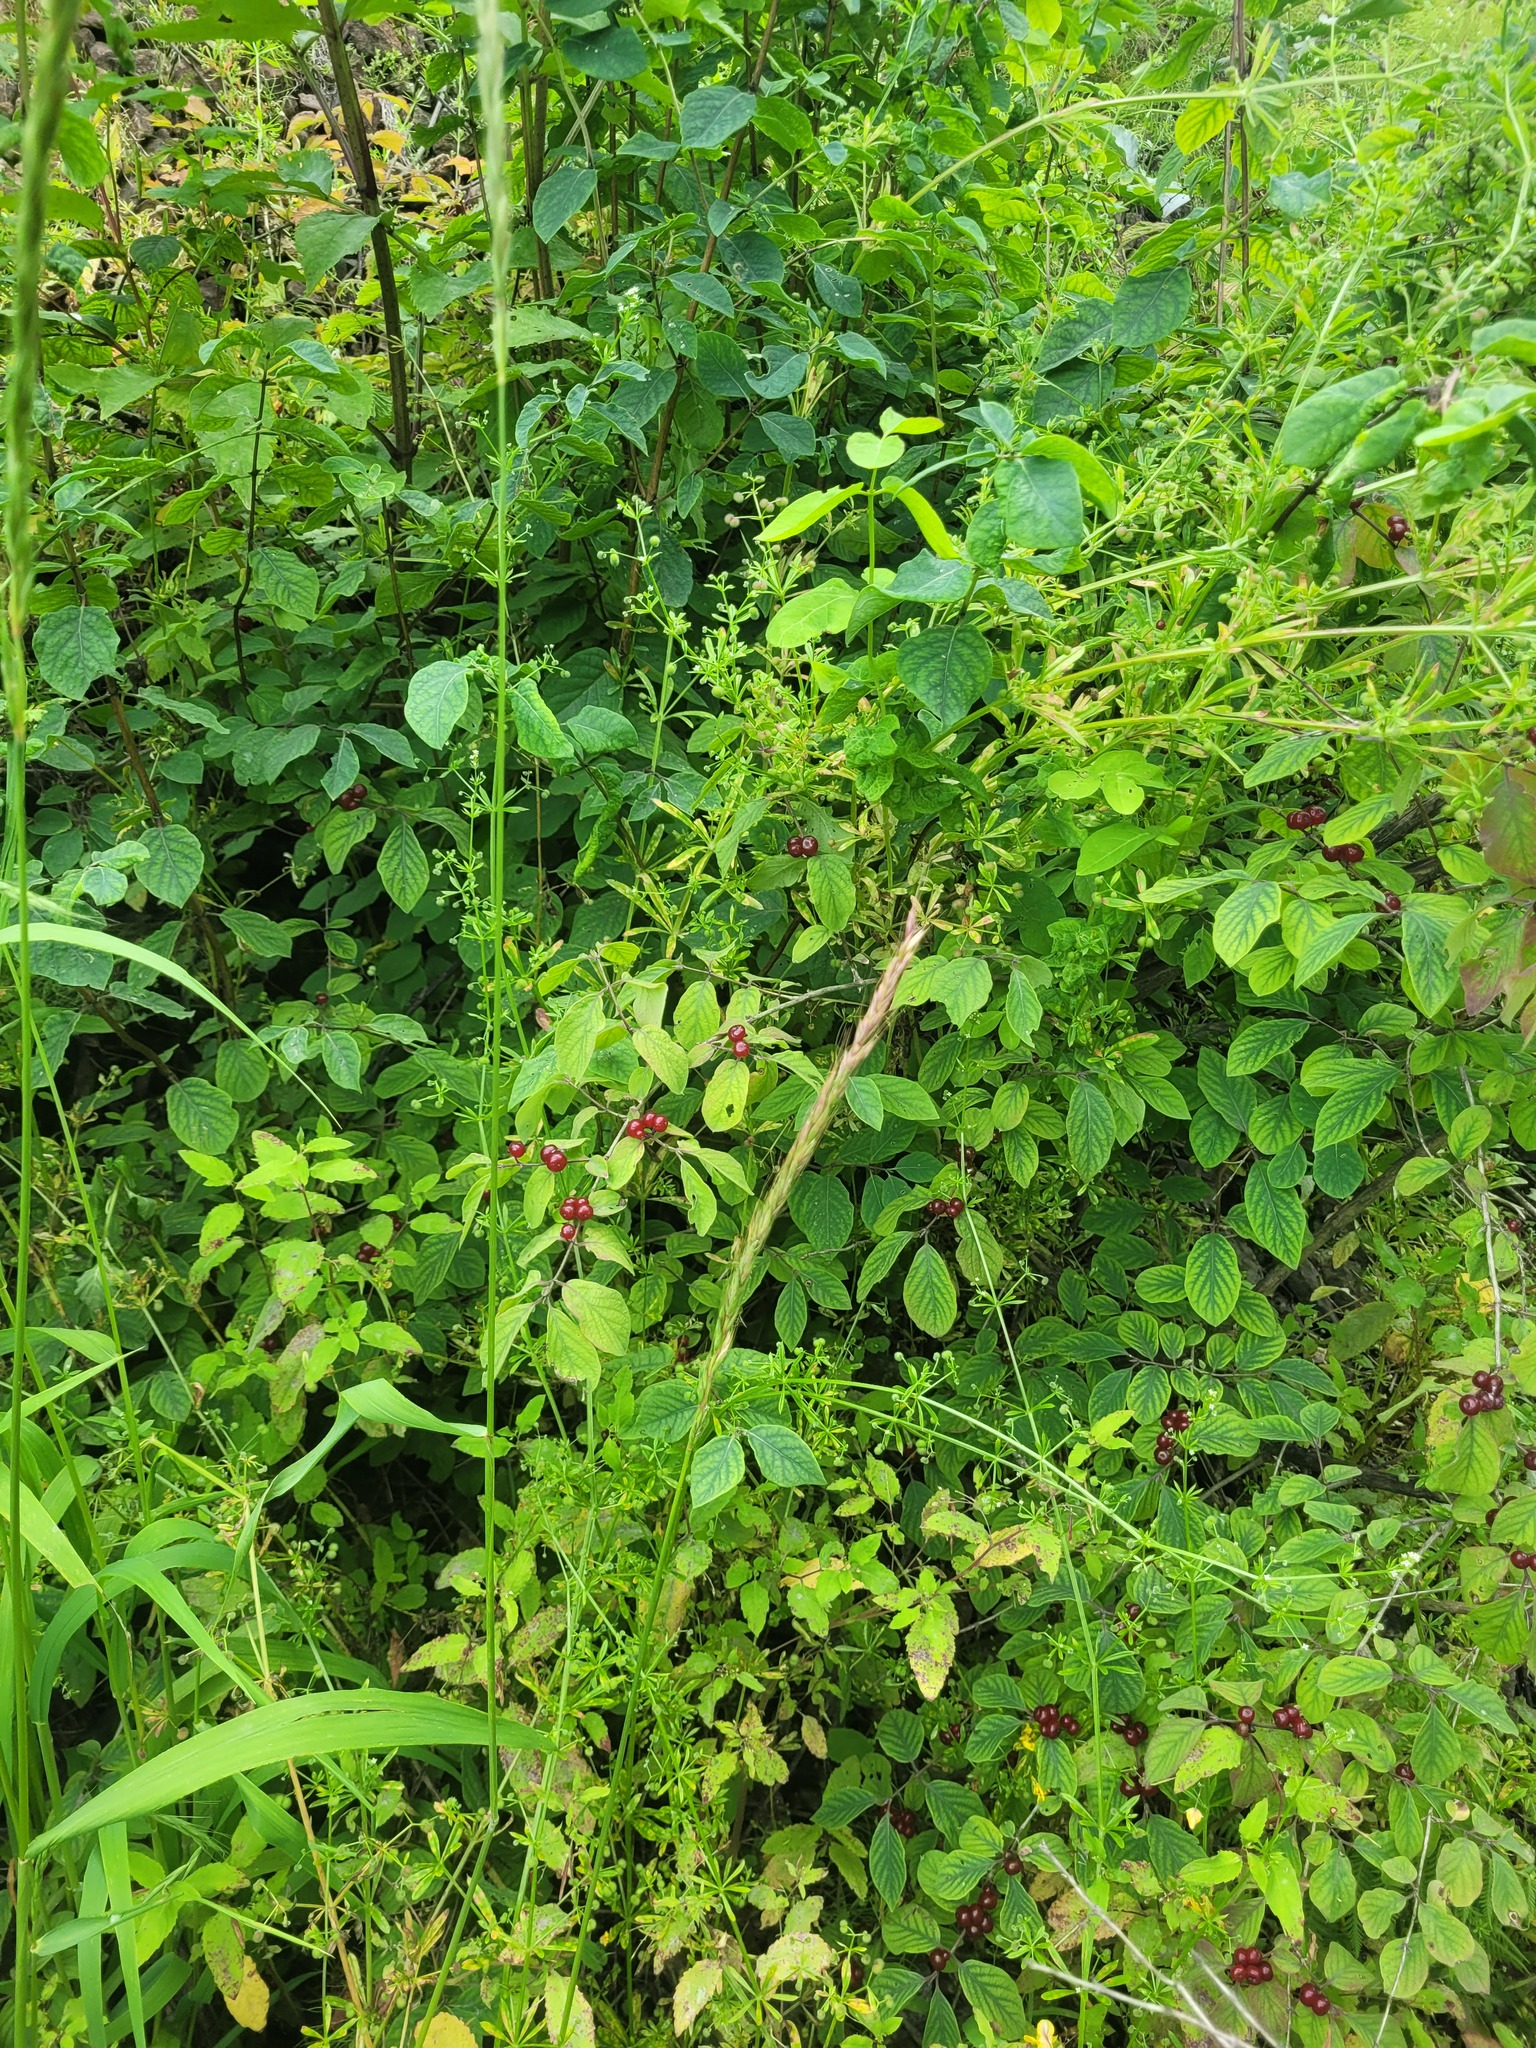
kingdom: Plantae
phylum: Tracheophyta
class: Magnoliopsida
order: Dipsacales
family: Caprifoliaceae
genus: Lonicera
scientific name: Lonicera xylosteum
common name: Fly honeysuckle
